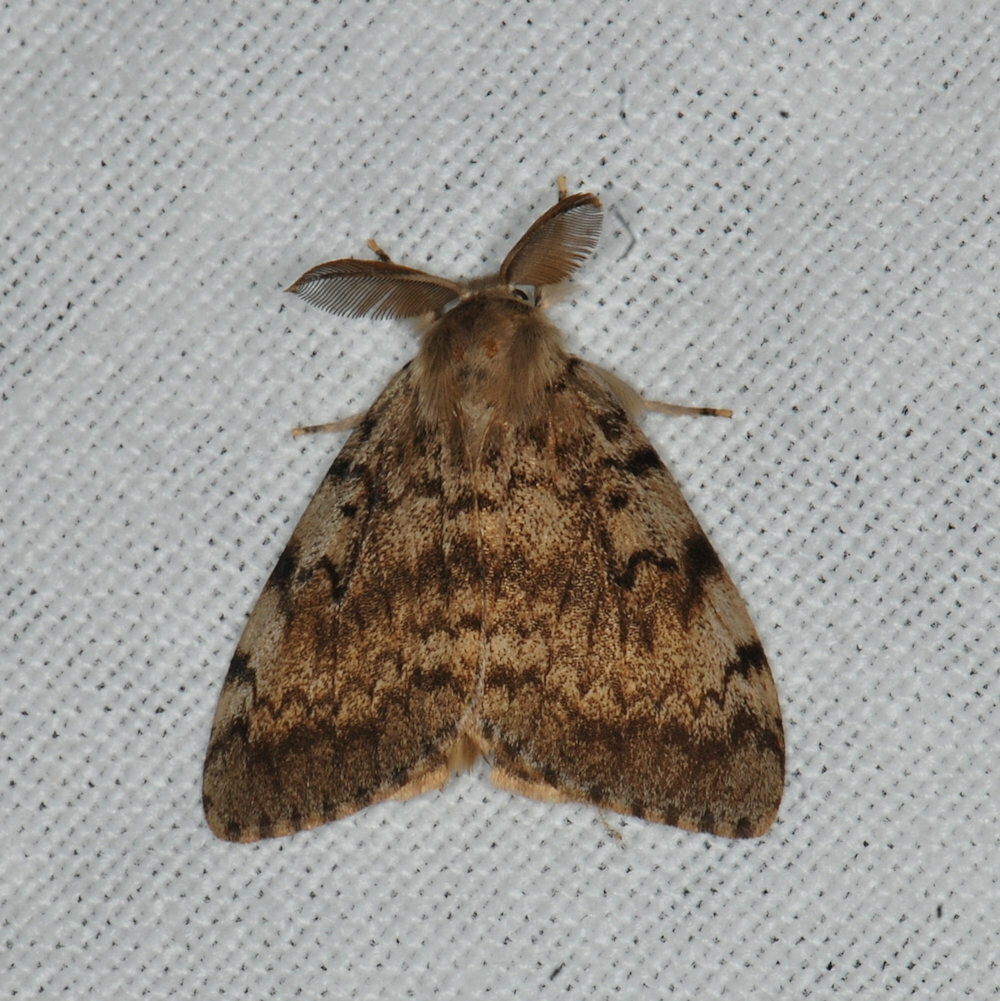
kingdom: Animalia
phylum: Arthropoda
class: Insecta
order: Lepidoptera
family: Erebidae
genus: Lymantria
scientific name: Lymantria dispar
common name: Gypsy moth
